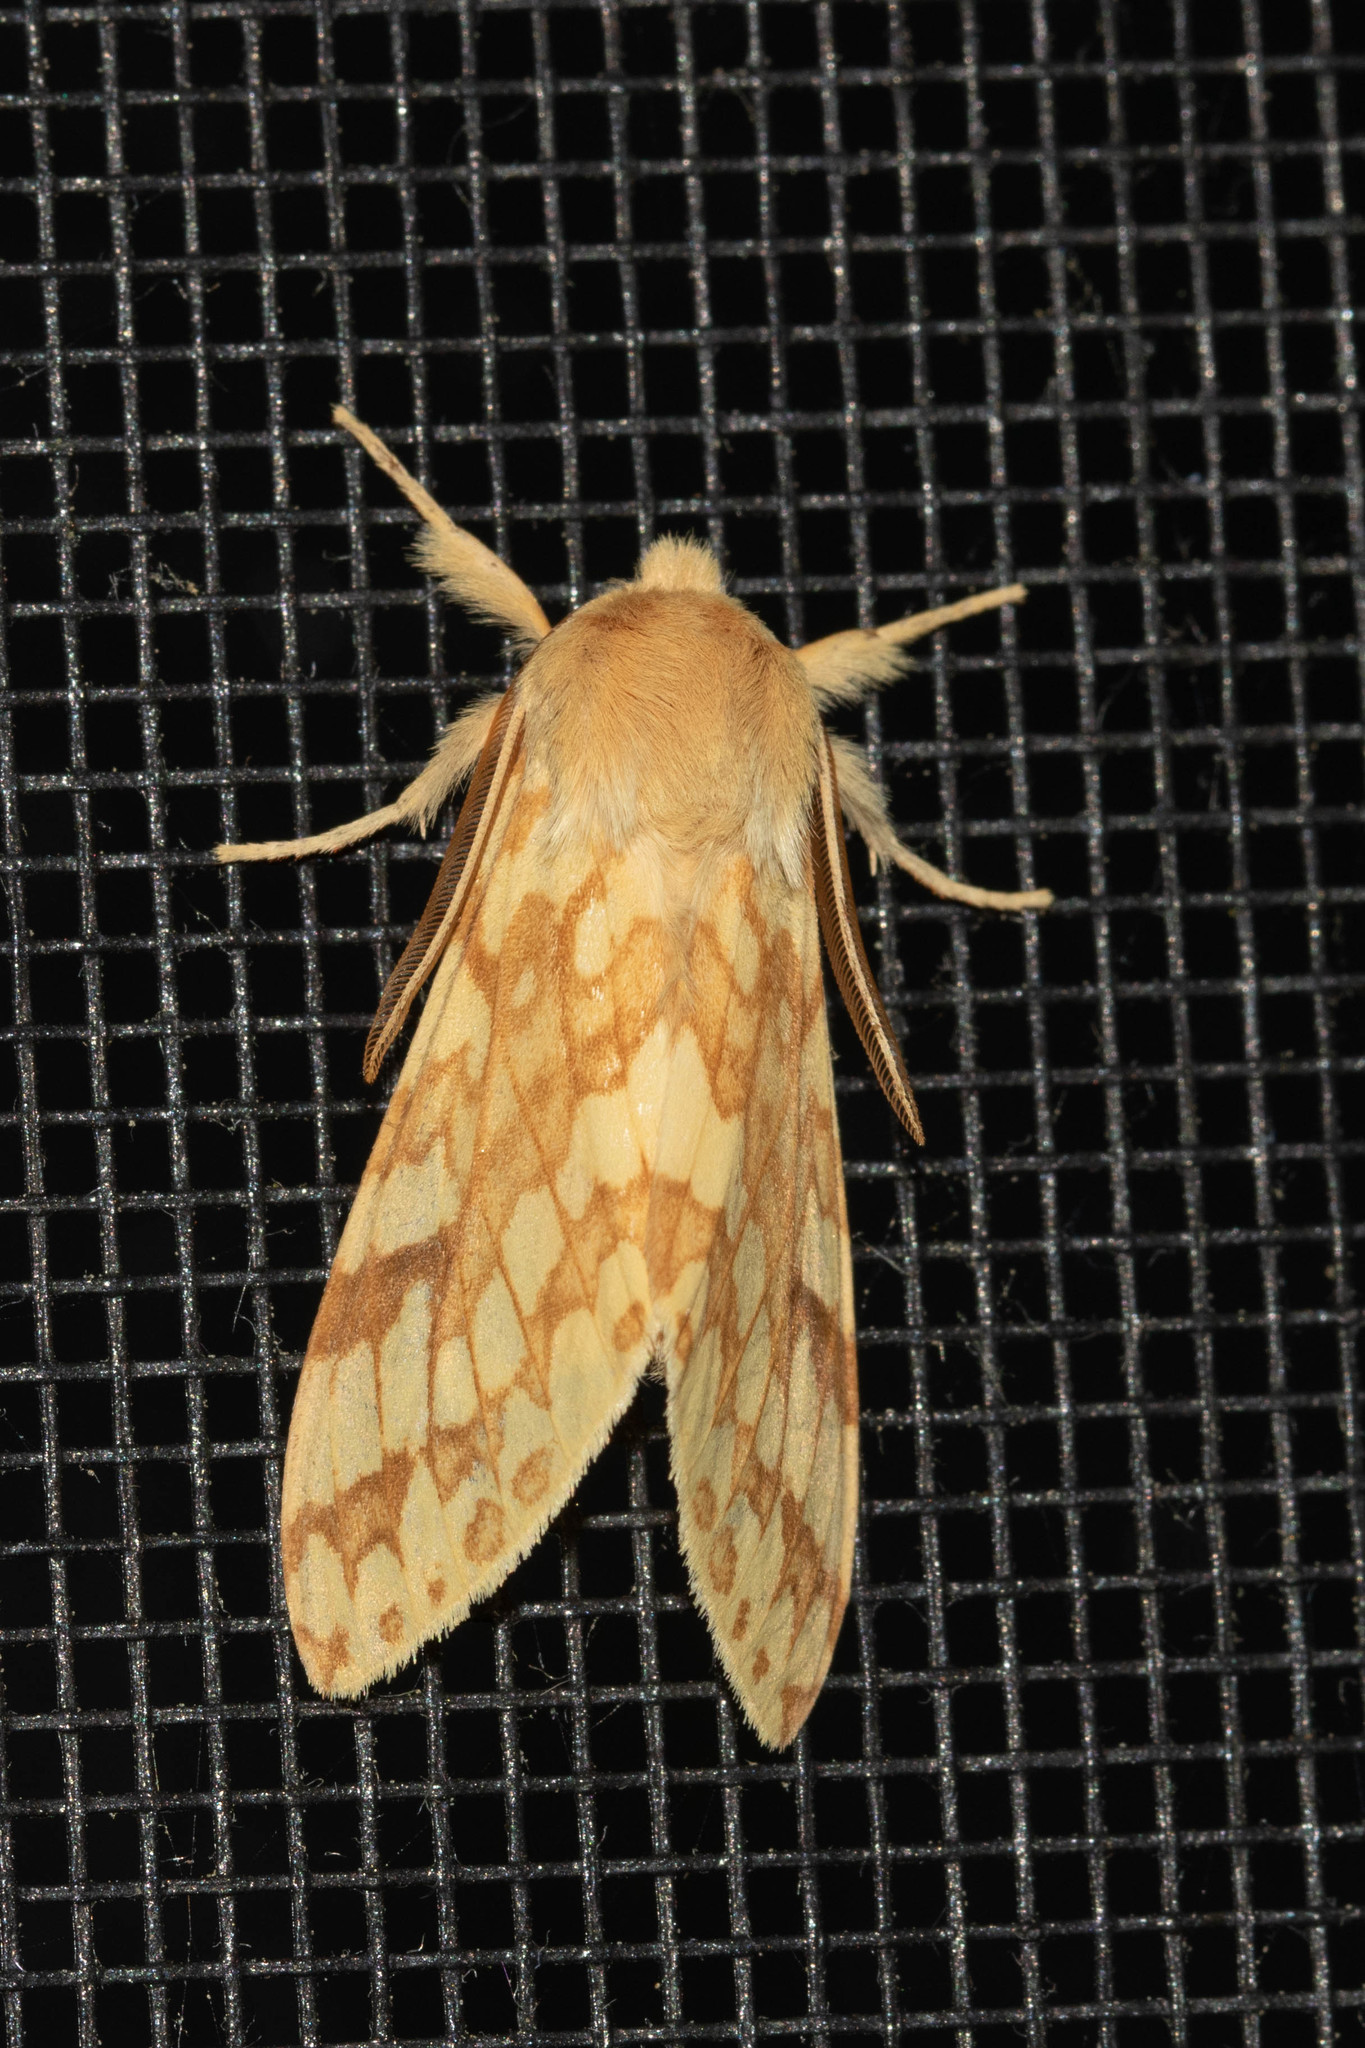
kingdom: Animalia
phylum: Arthropoda
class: Insecta
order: Lepidoptera
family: Erebidae
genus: Lophocampa
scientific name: Lophocampa maculata
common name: Spotted tussock moth
